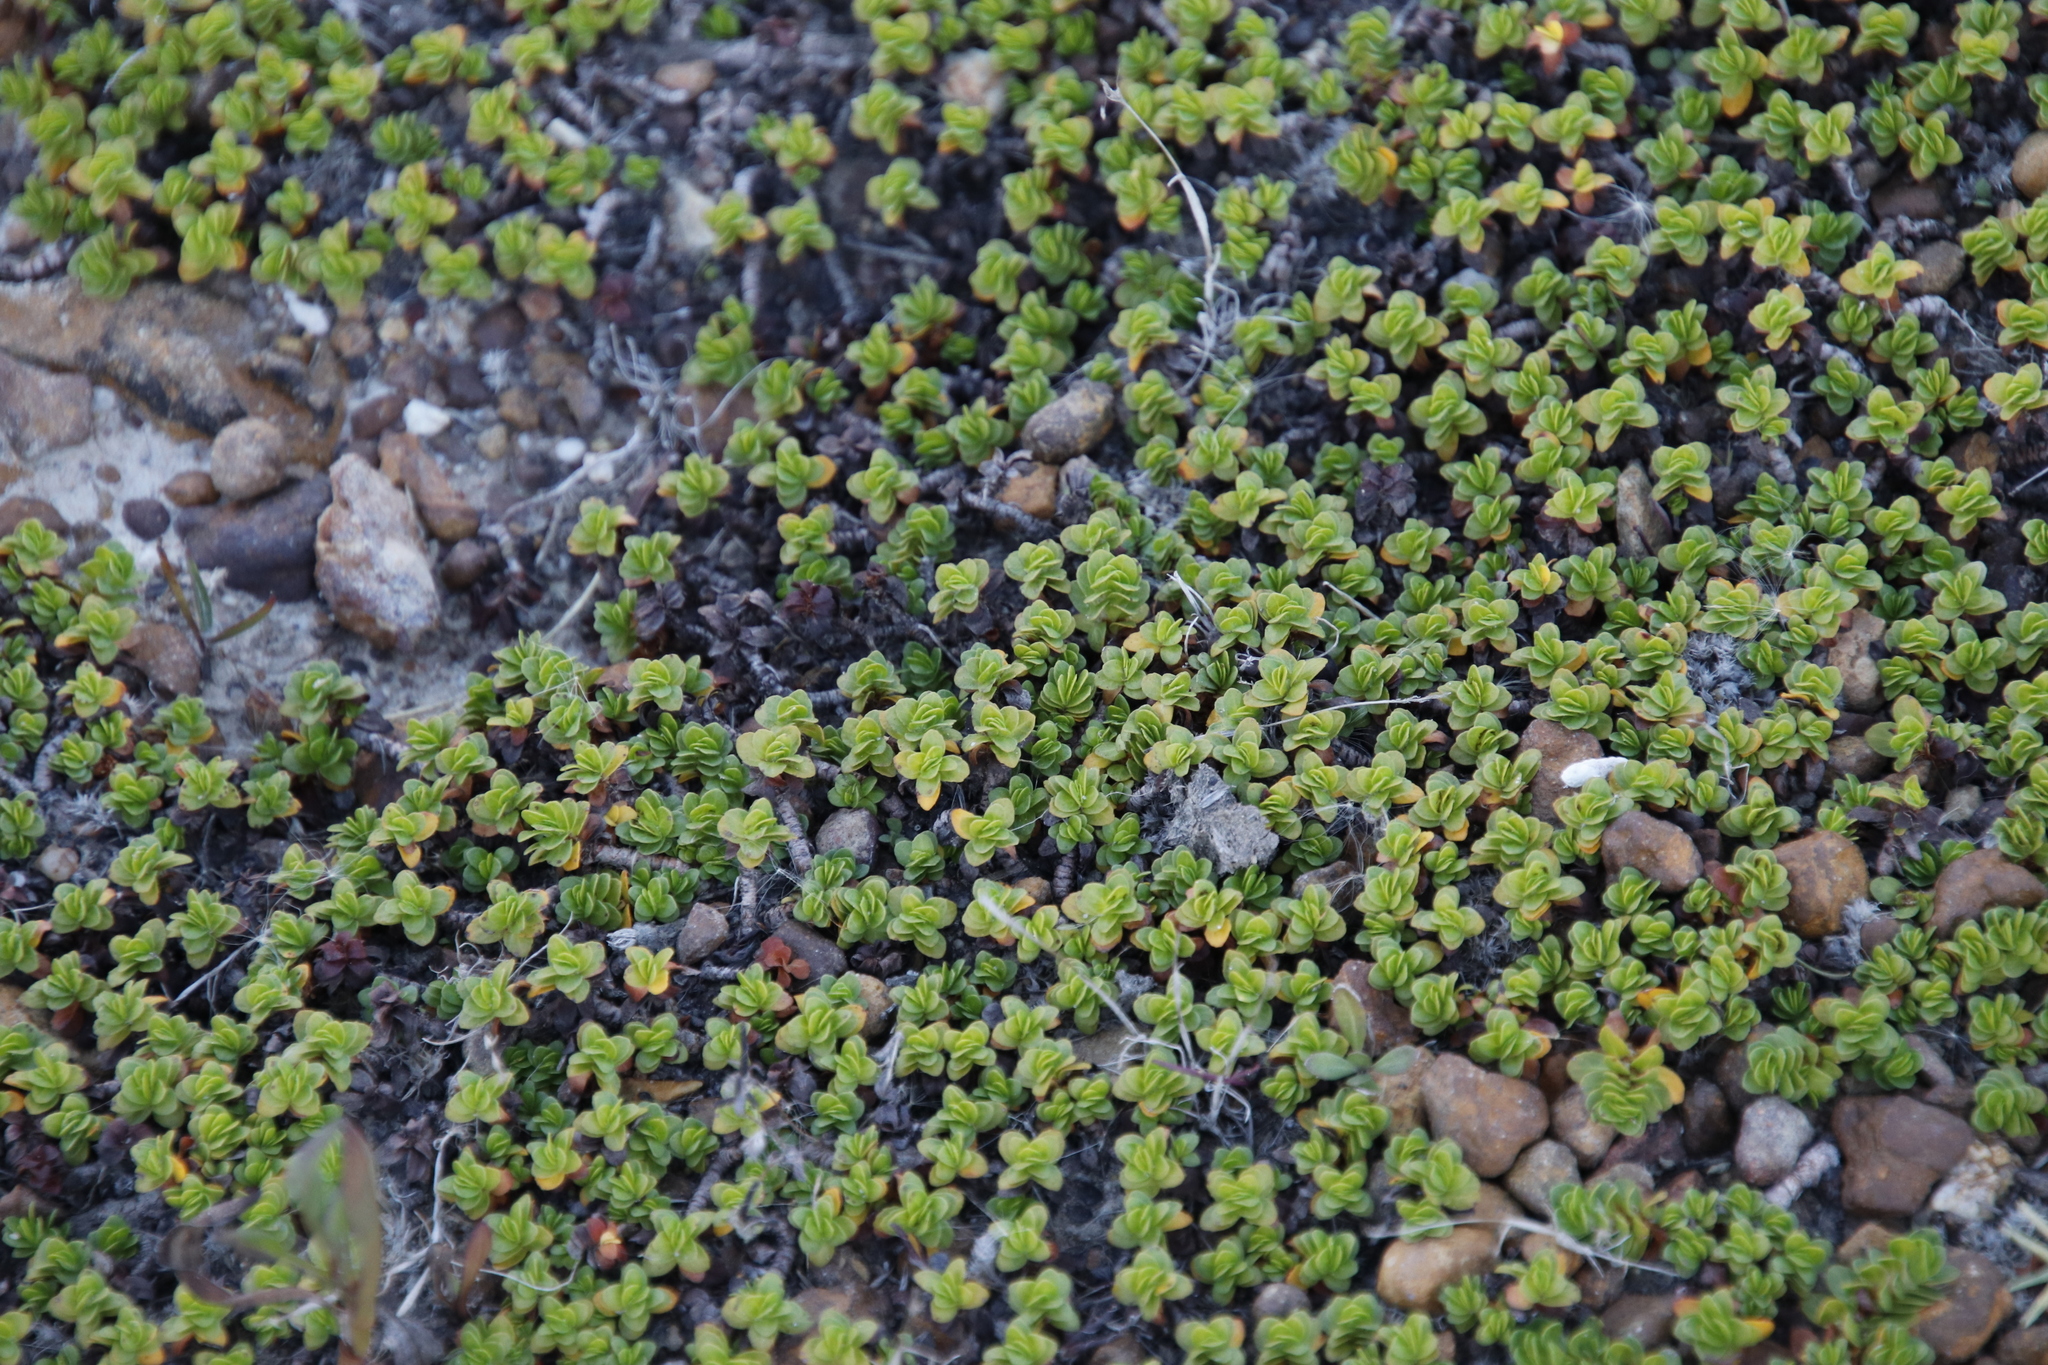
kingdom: Plantae
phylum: Tracheophyta
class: Magnoliopsida
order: Malpighiales
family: Elatinaceae
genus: Bergia
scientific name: Bergia glomerata
